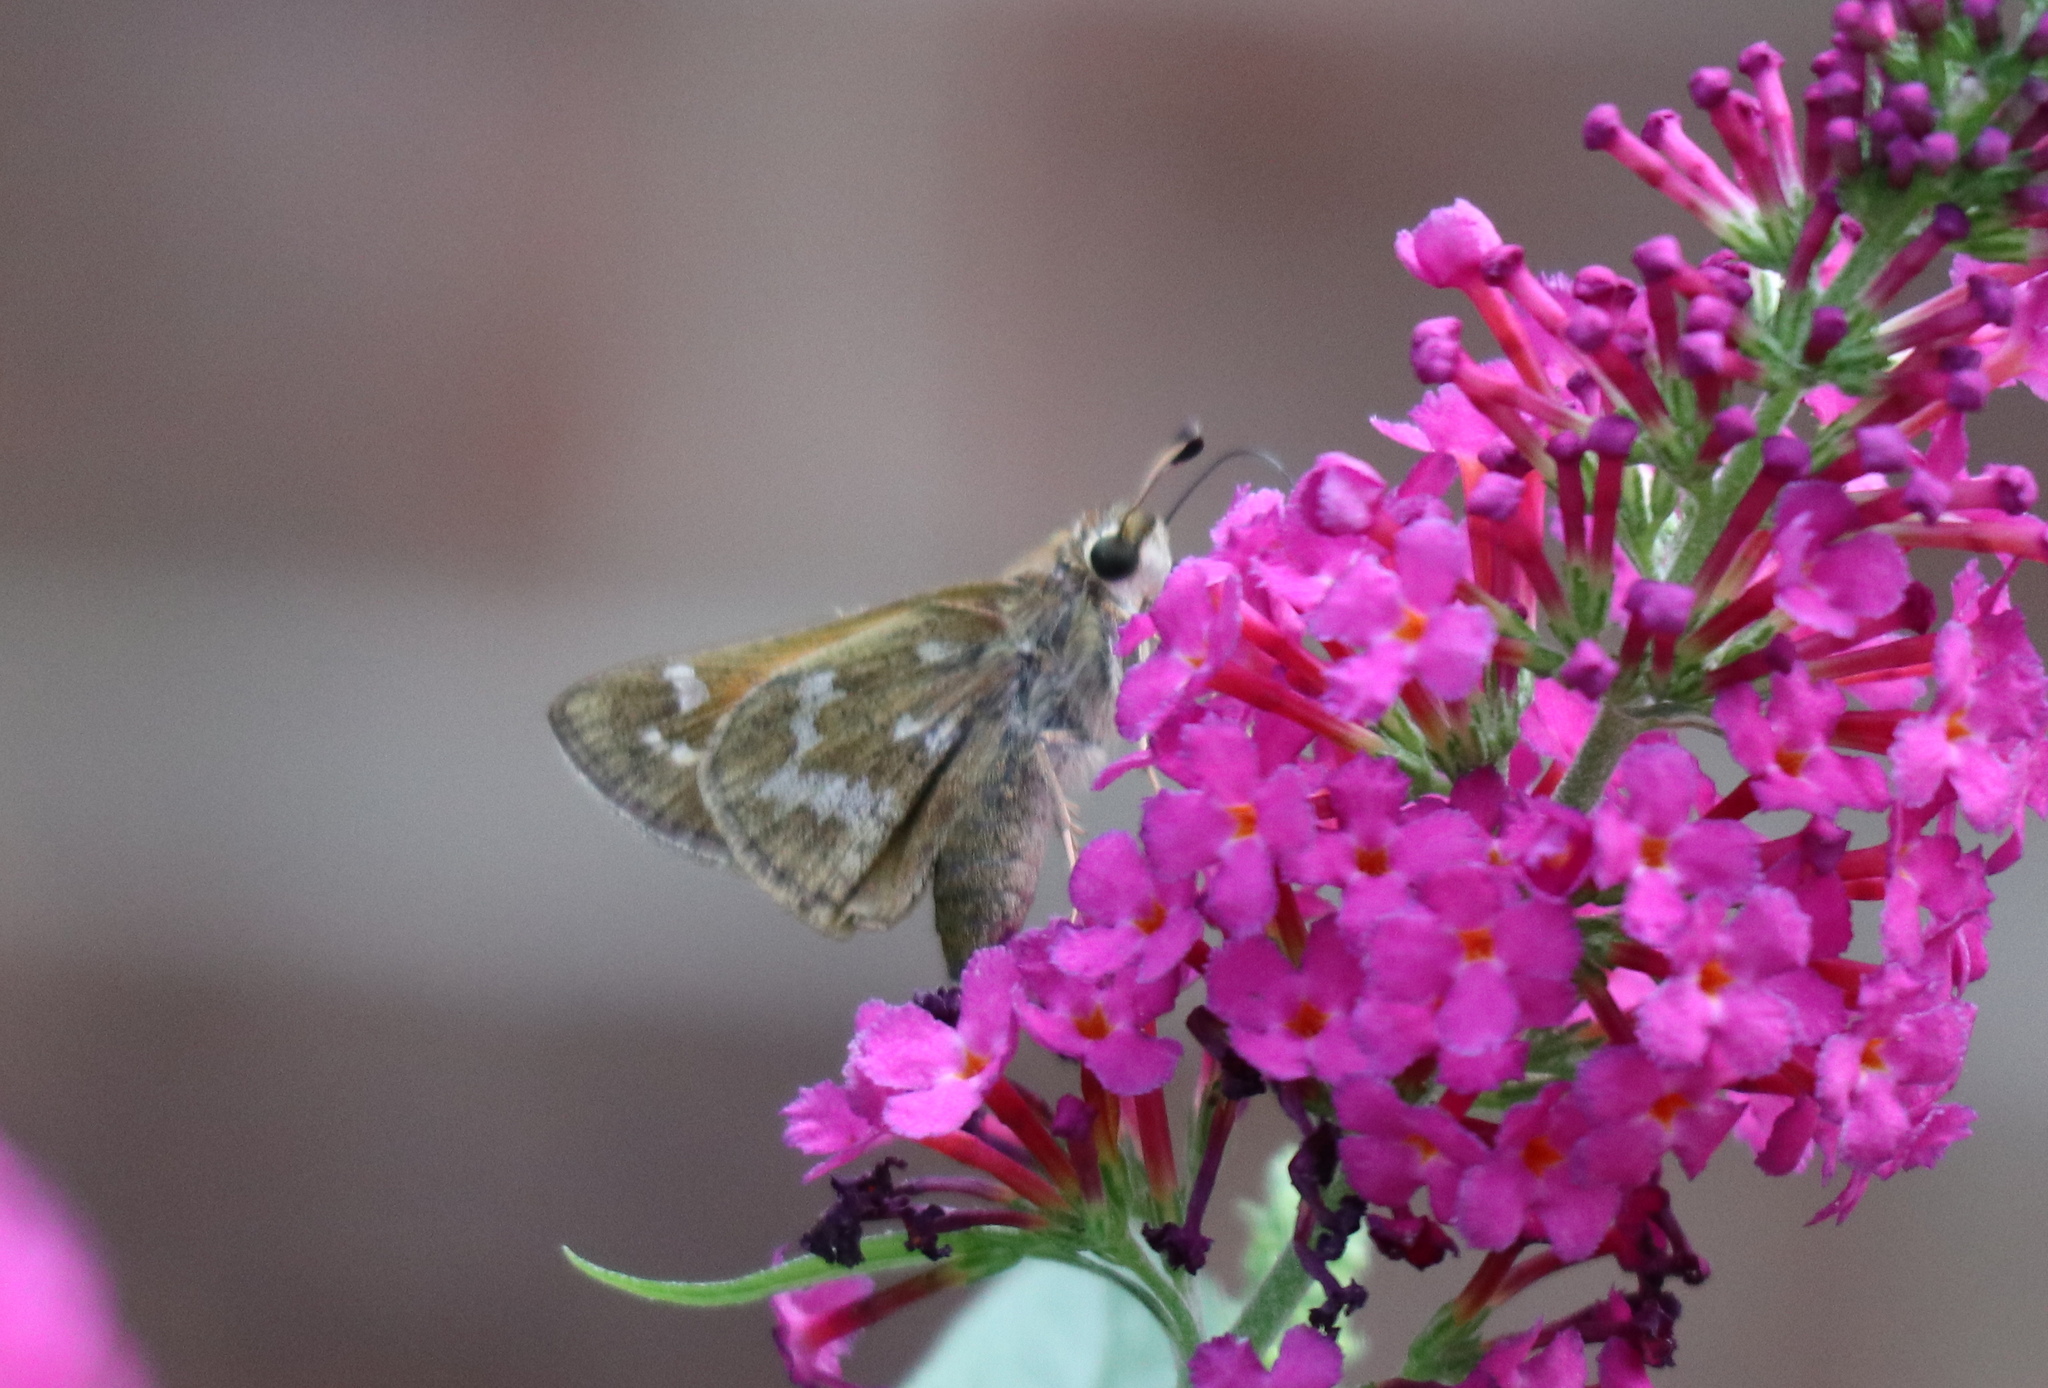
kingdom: Animalia
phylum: Arthropoda
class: Insecta
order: Lepidoptera
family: Hesperiidae
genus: Atalopedes
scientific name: Atalopedes
